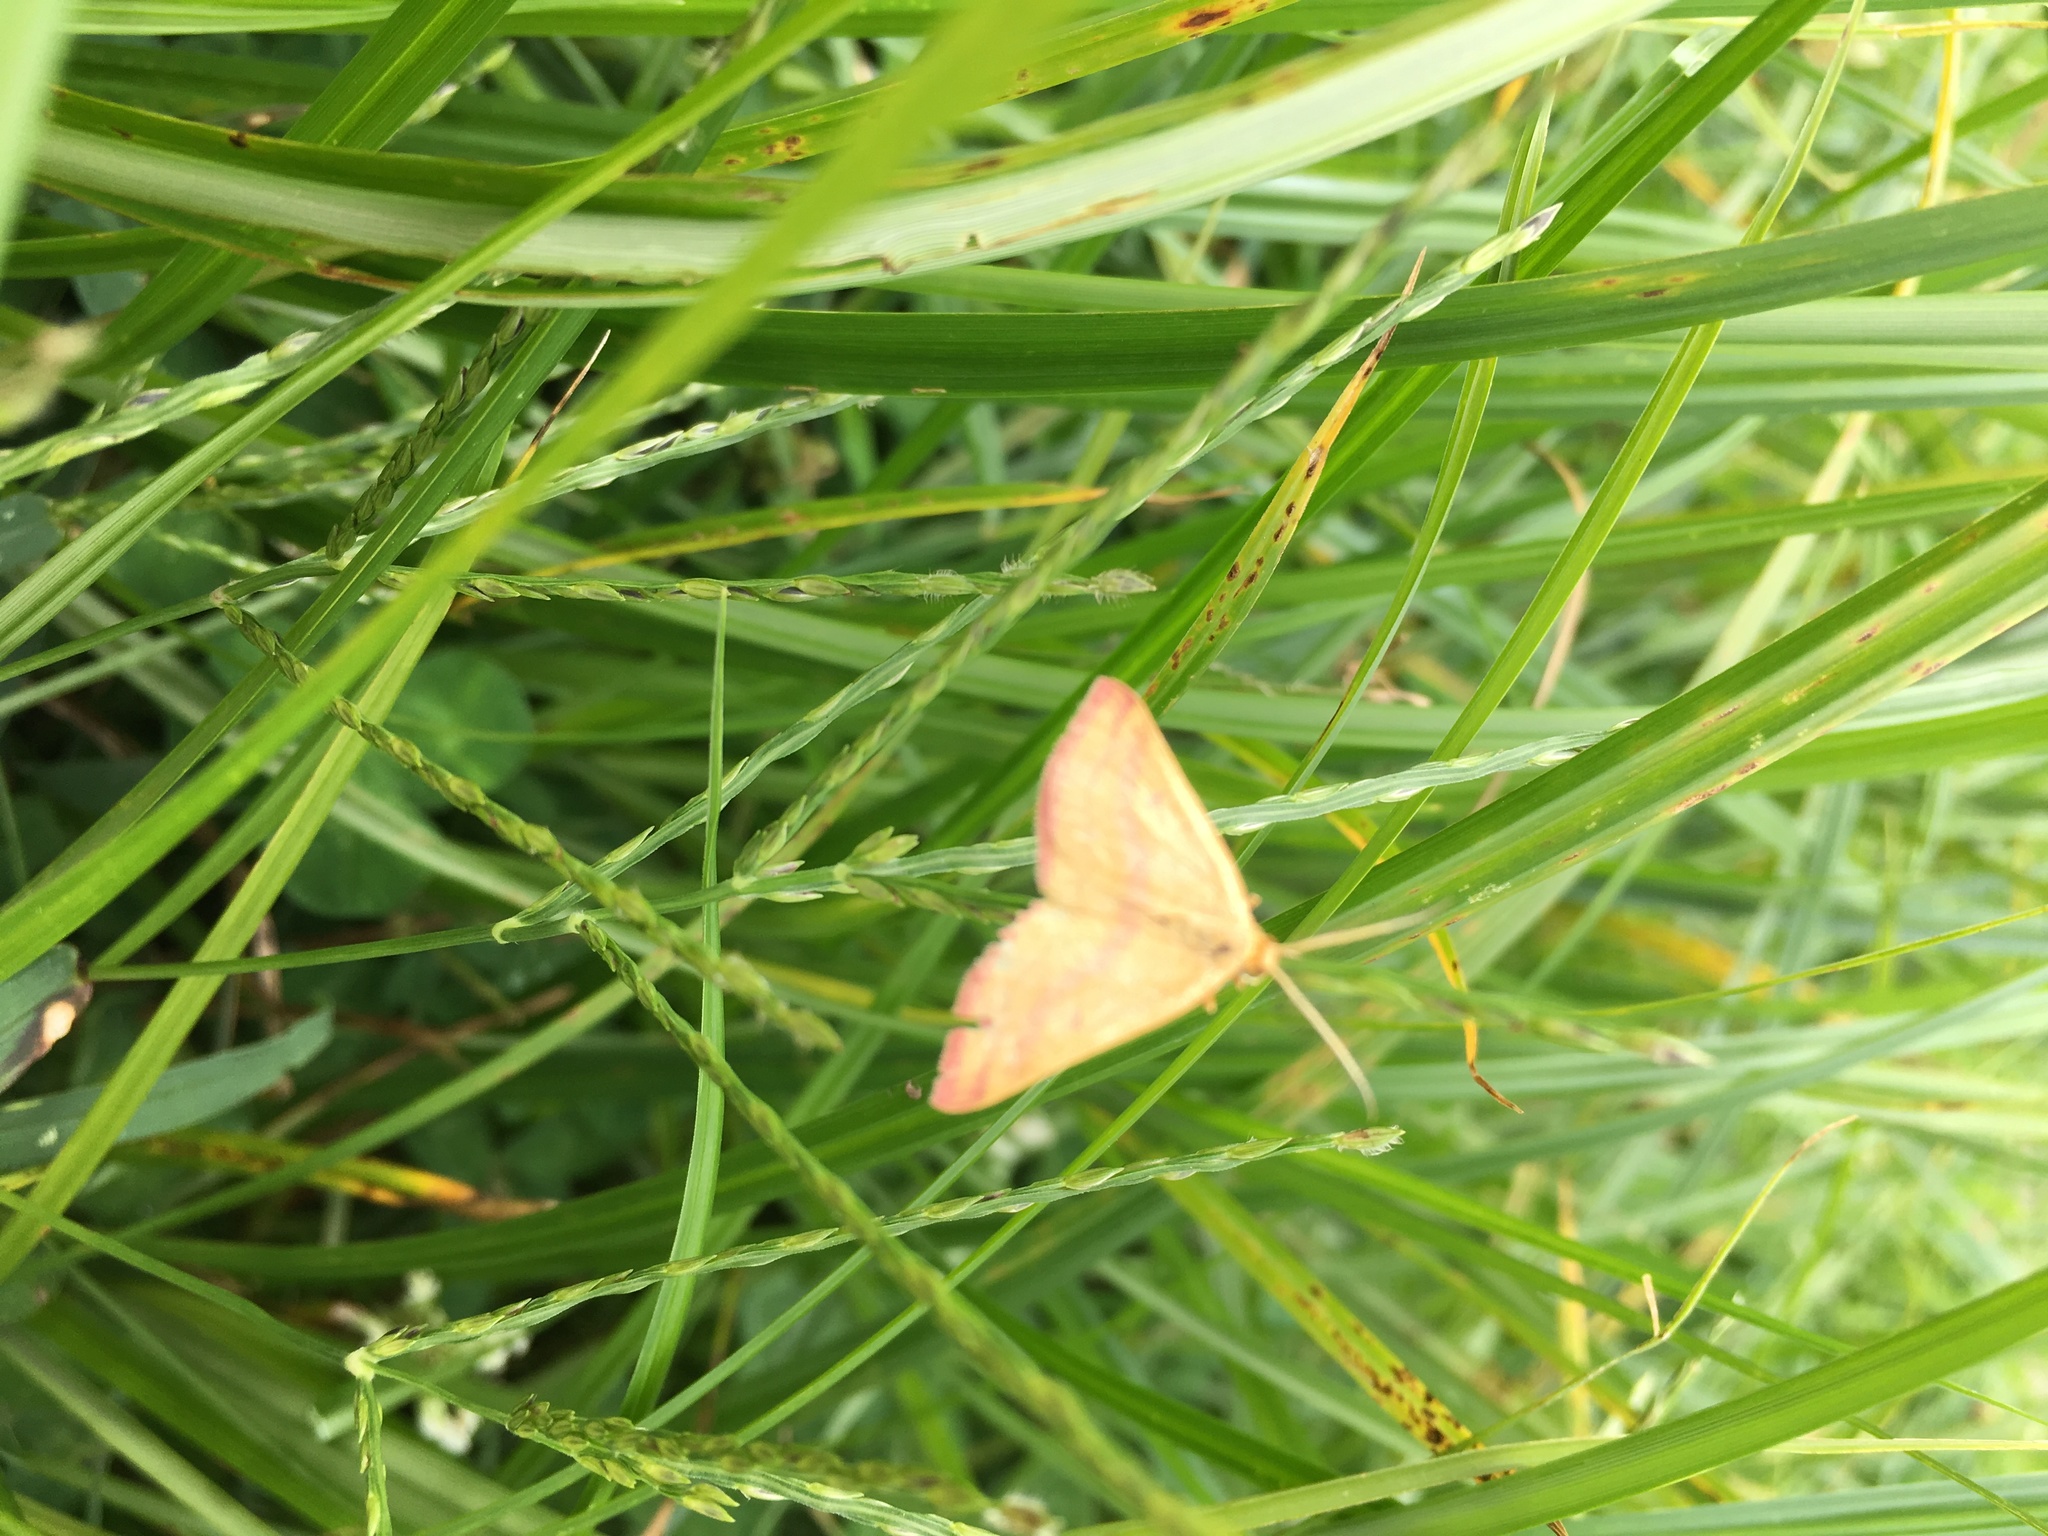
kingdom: Animalia
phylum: Arthropoda
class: Insecta
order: Lepidoptera
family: Geometridae
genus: Haematopis
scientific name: Haematopis grataria
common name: Chickweed geometer
